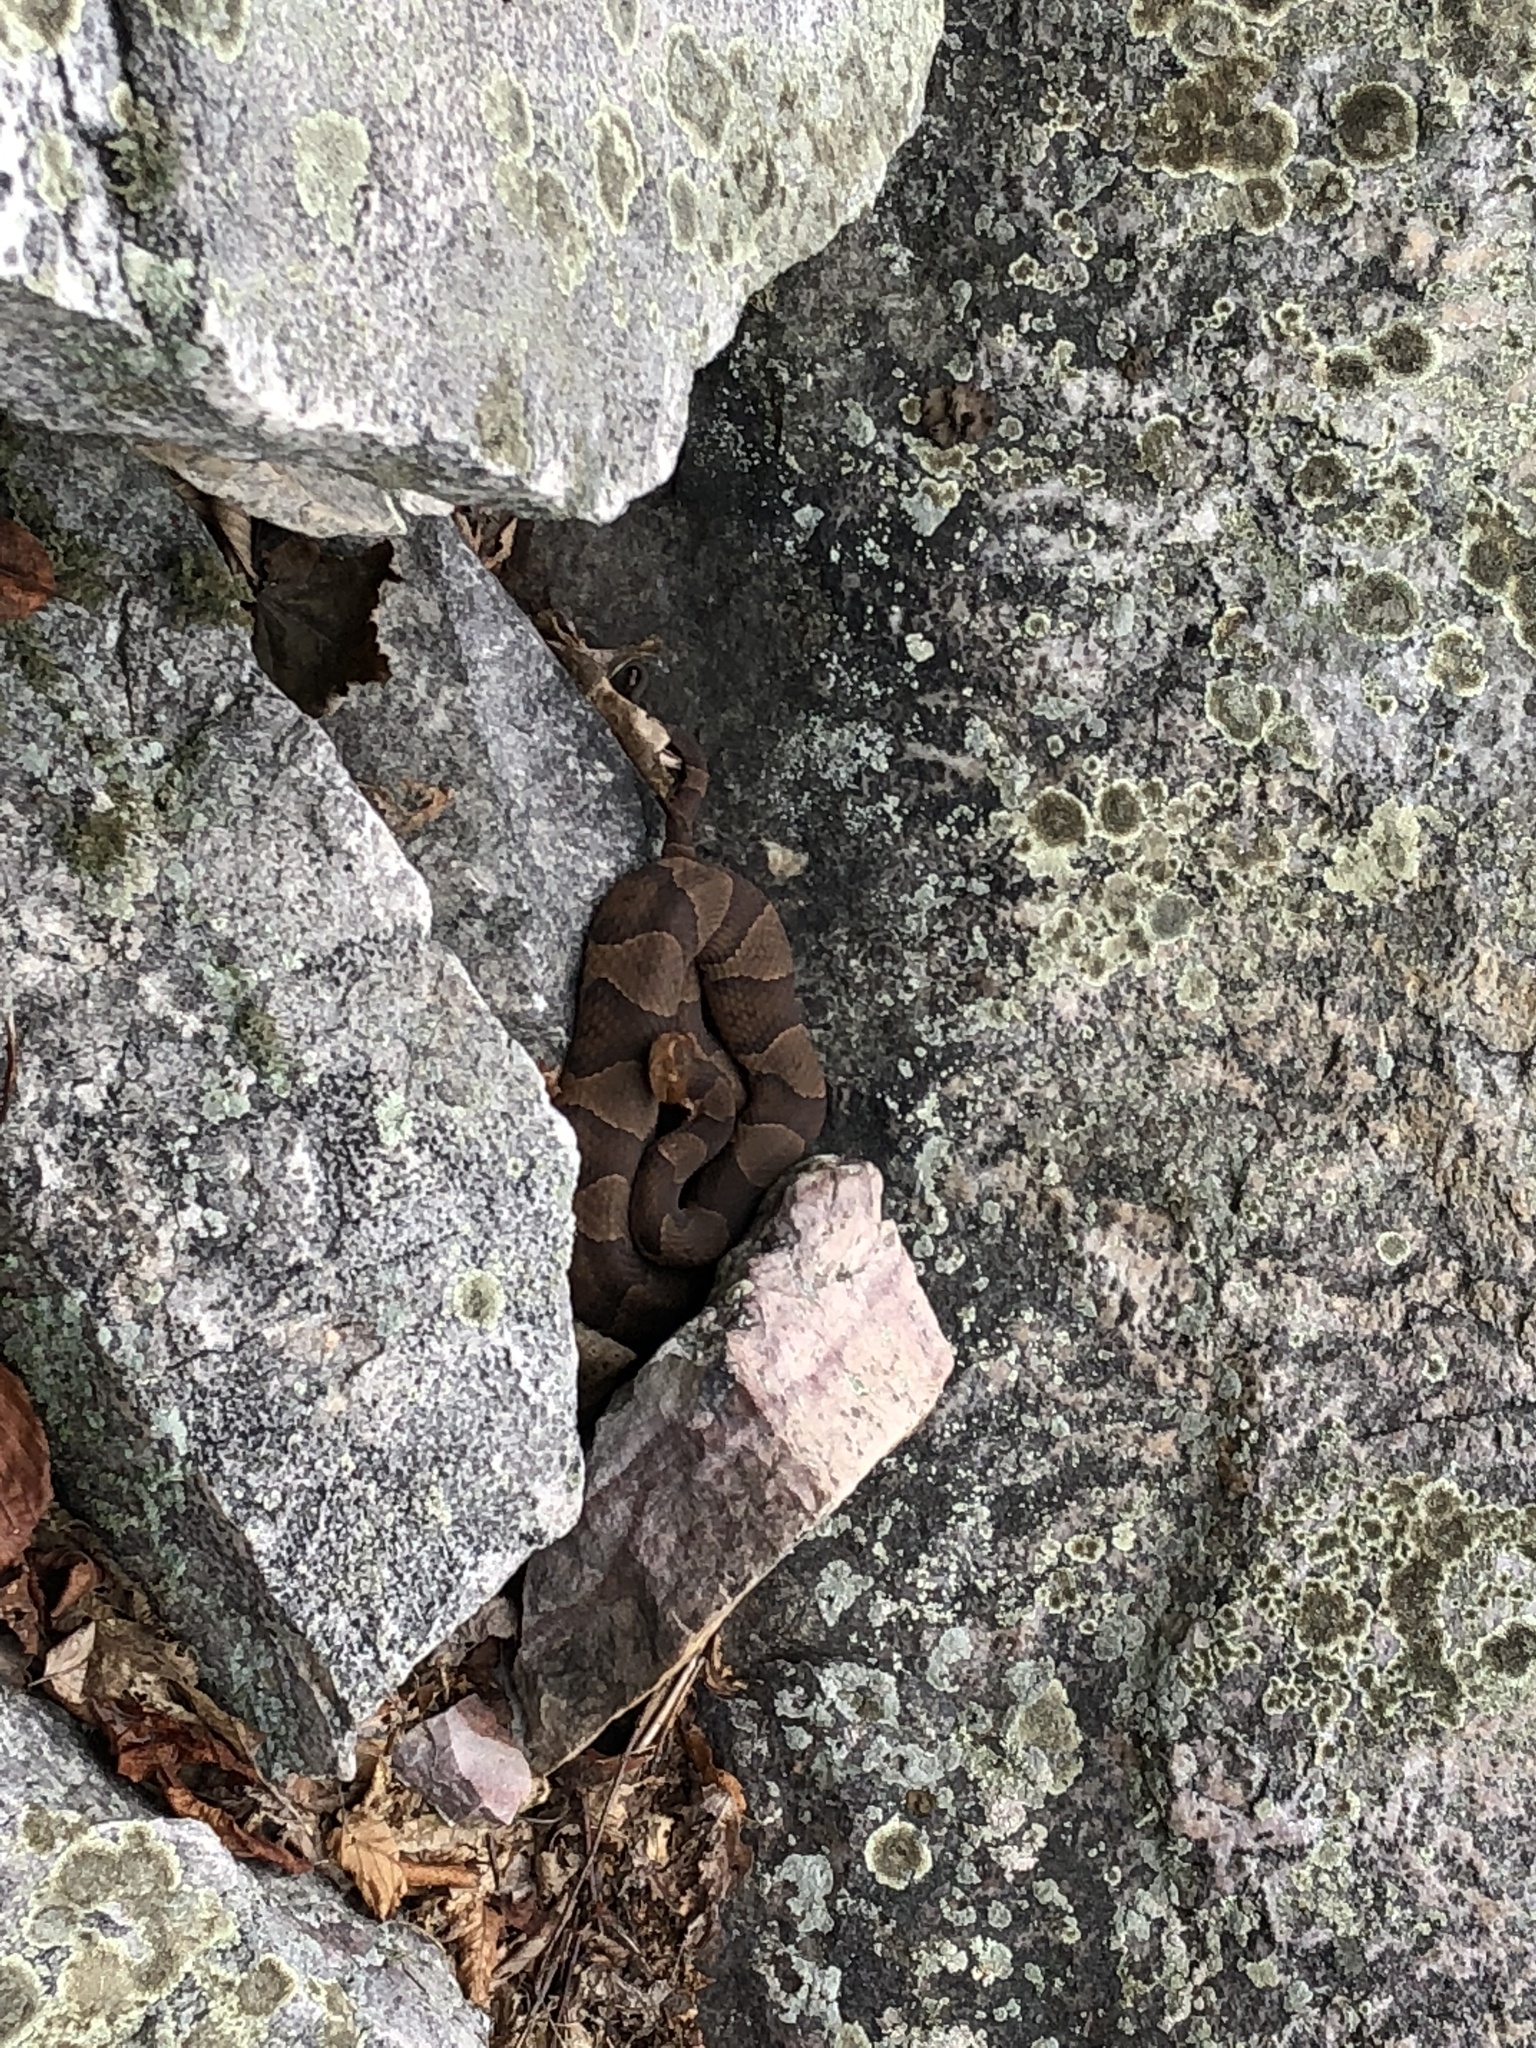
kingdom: Animalia
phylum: Chordata
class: Squamata
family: Viperidae
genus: Agkistrodon
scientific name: Agkistrodon contortrix
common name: Northern copperhead
